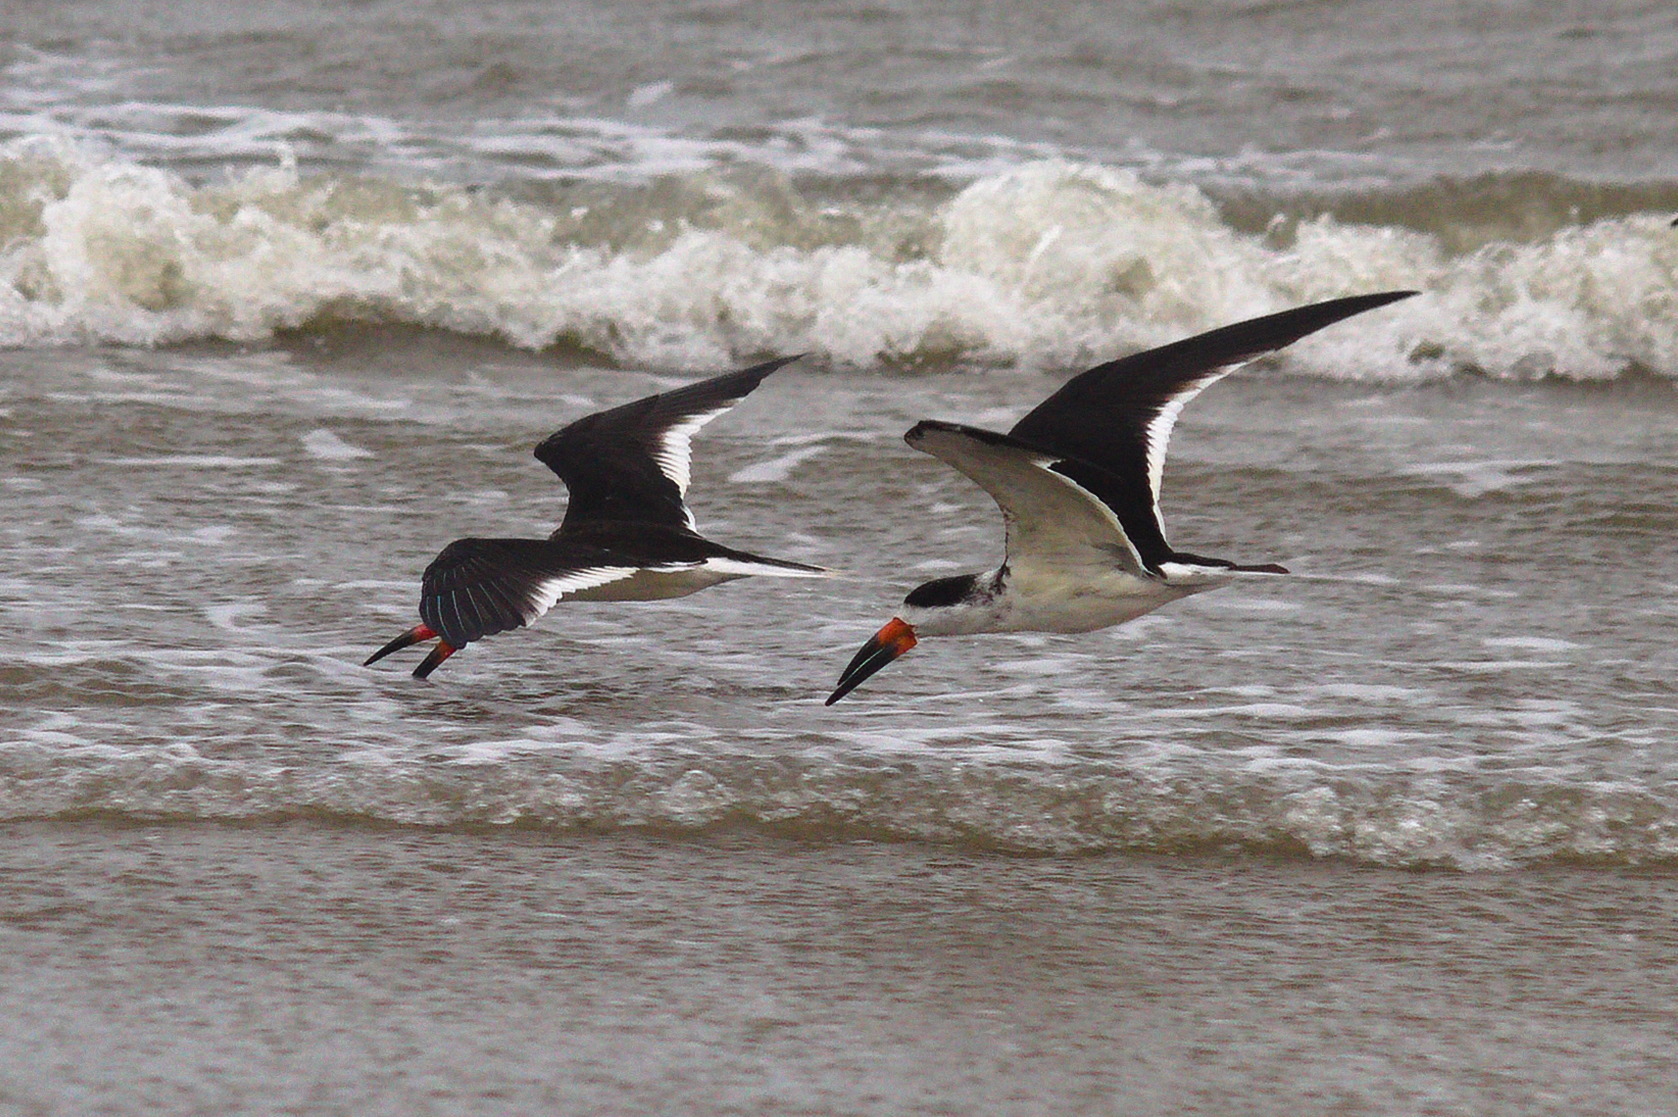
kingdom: Animalia
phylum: Chordata
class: Aves
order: Charadriiformes
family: Laridae
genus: Rynchops
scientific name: Rynchops niger
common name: Black skimmer
